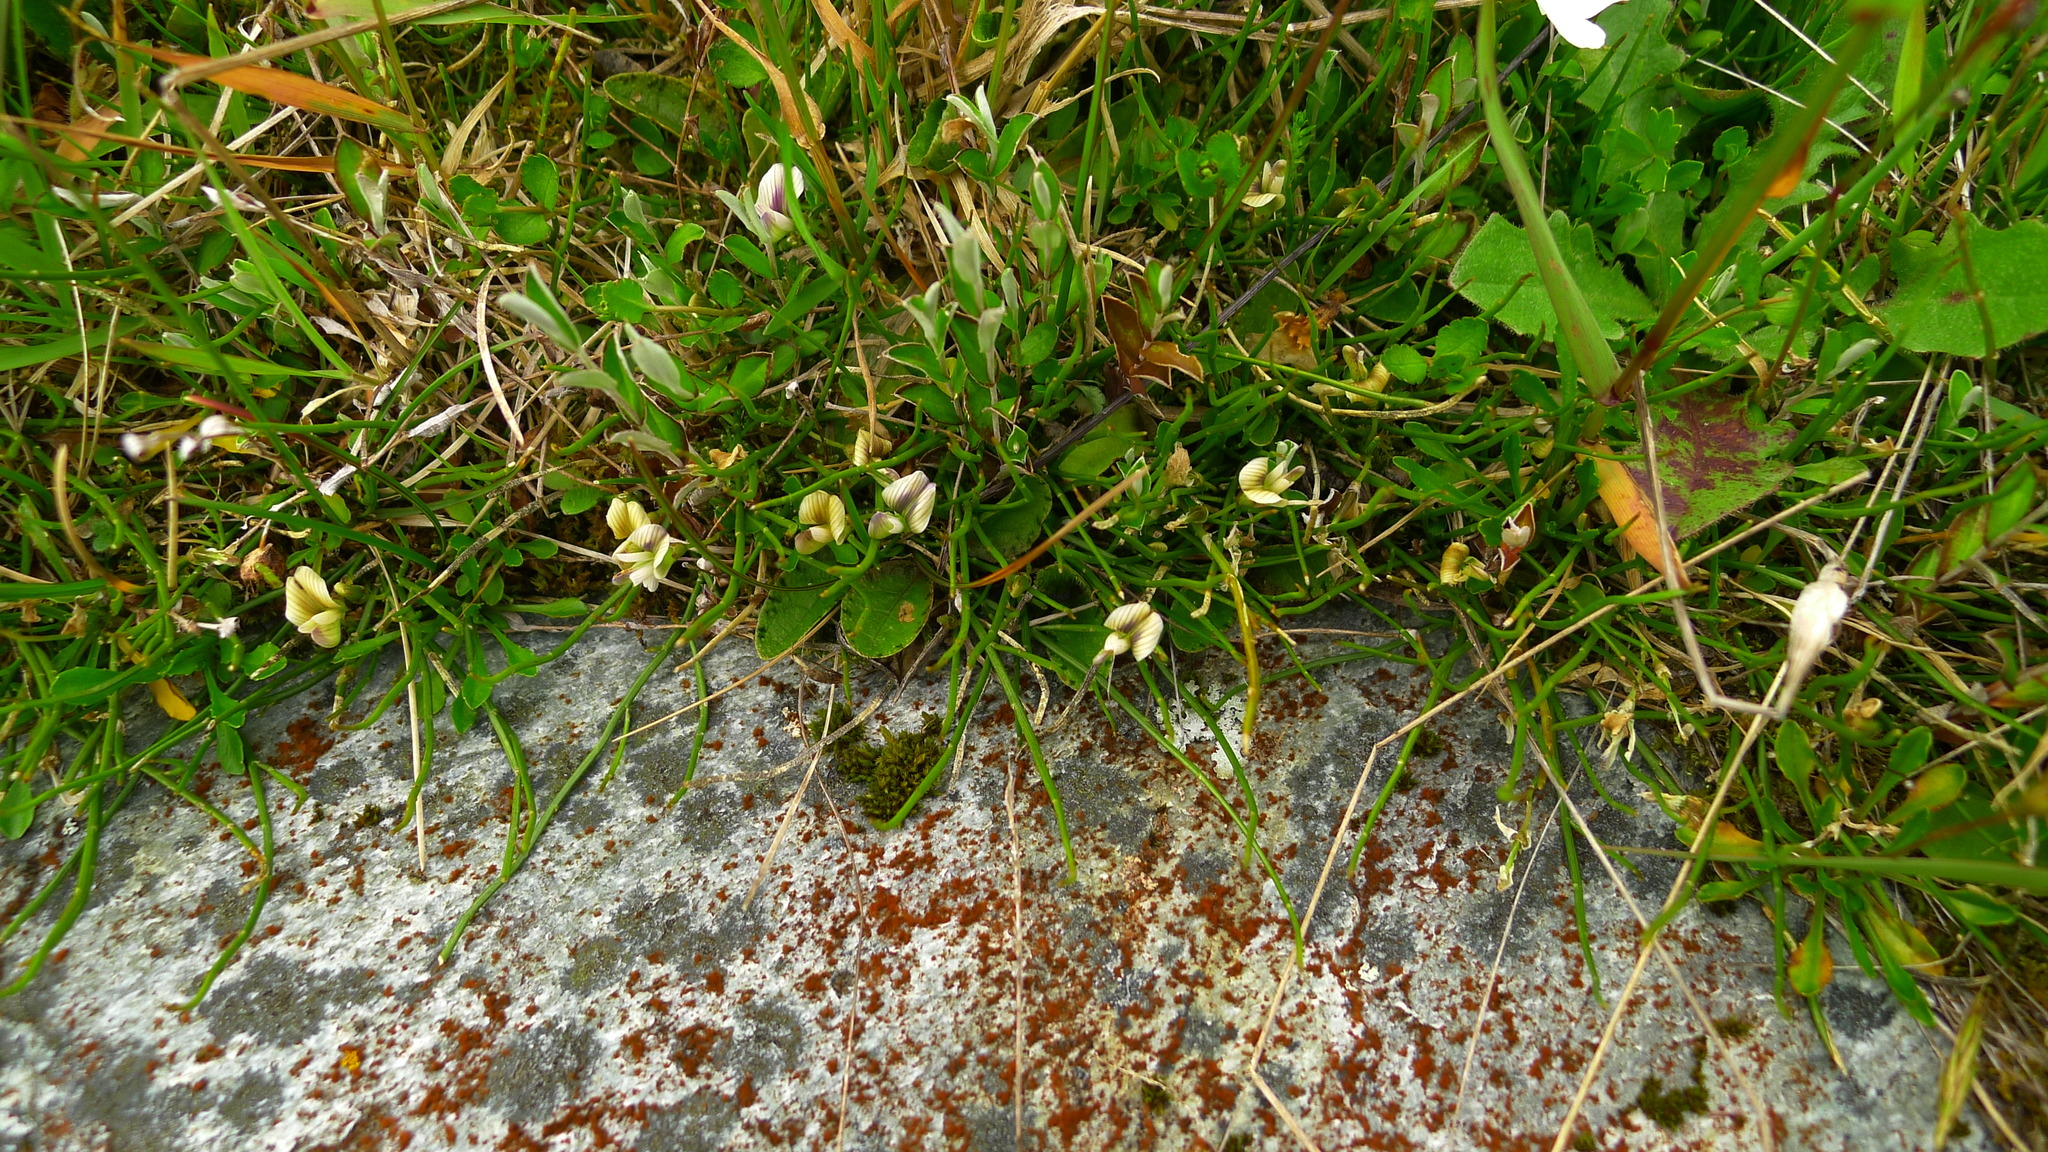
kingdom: Plantae
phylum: Tracheophyta
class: Magnoliopsida
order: Fabales
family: Fabaceae
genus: Carmichaelia
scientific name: Carmichaelia uniflora
